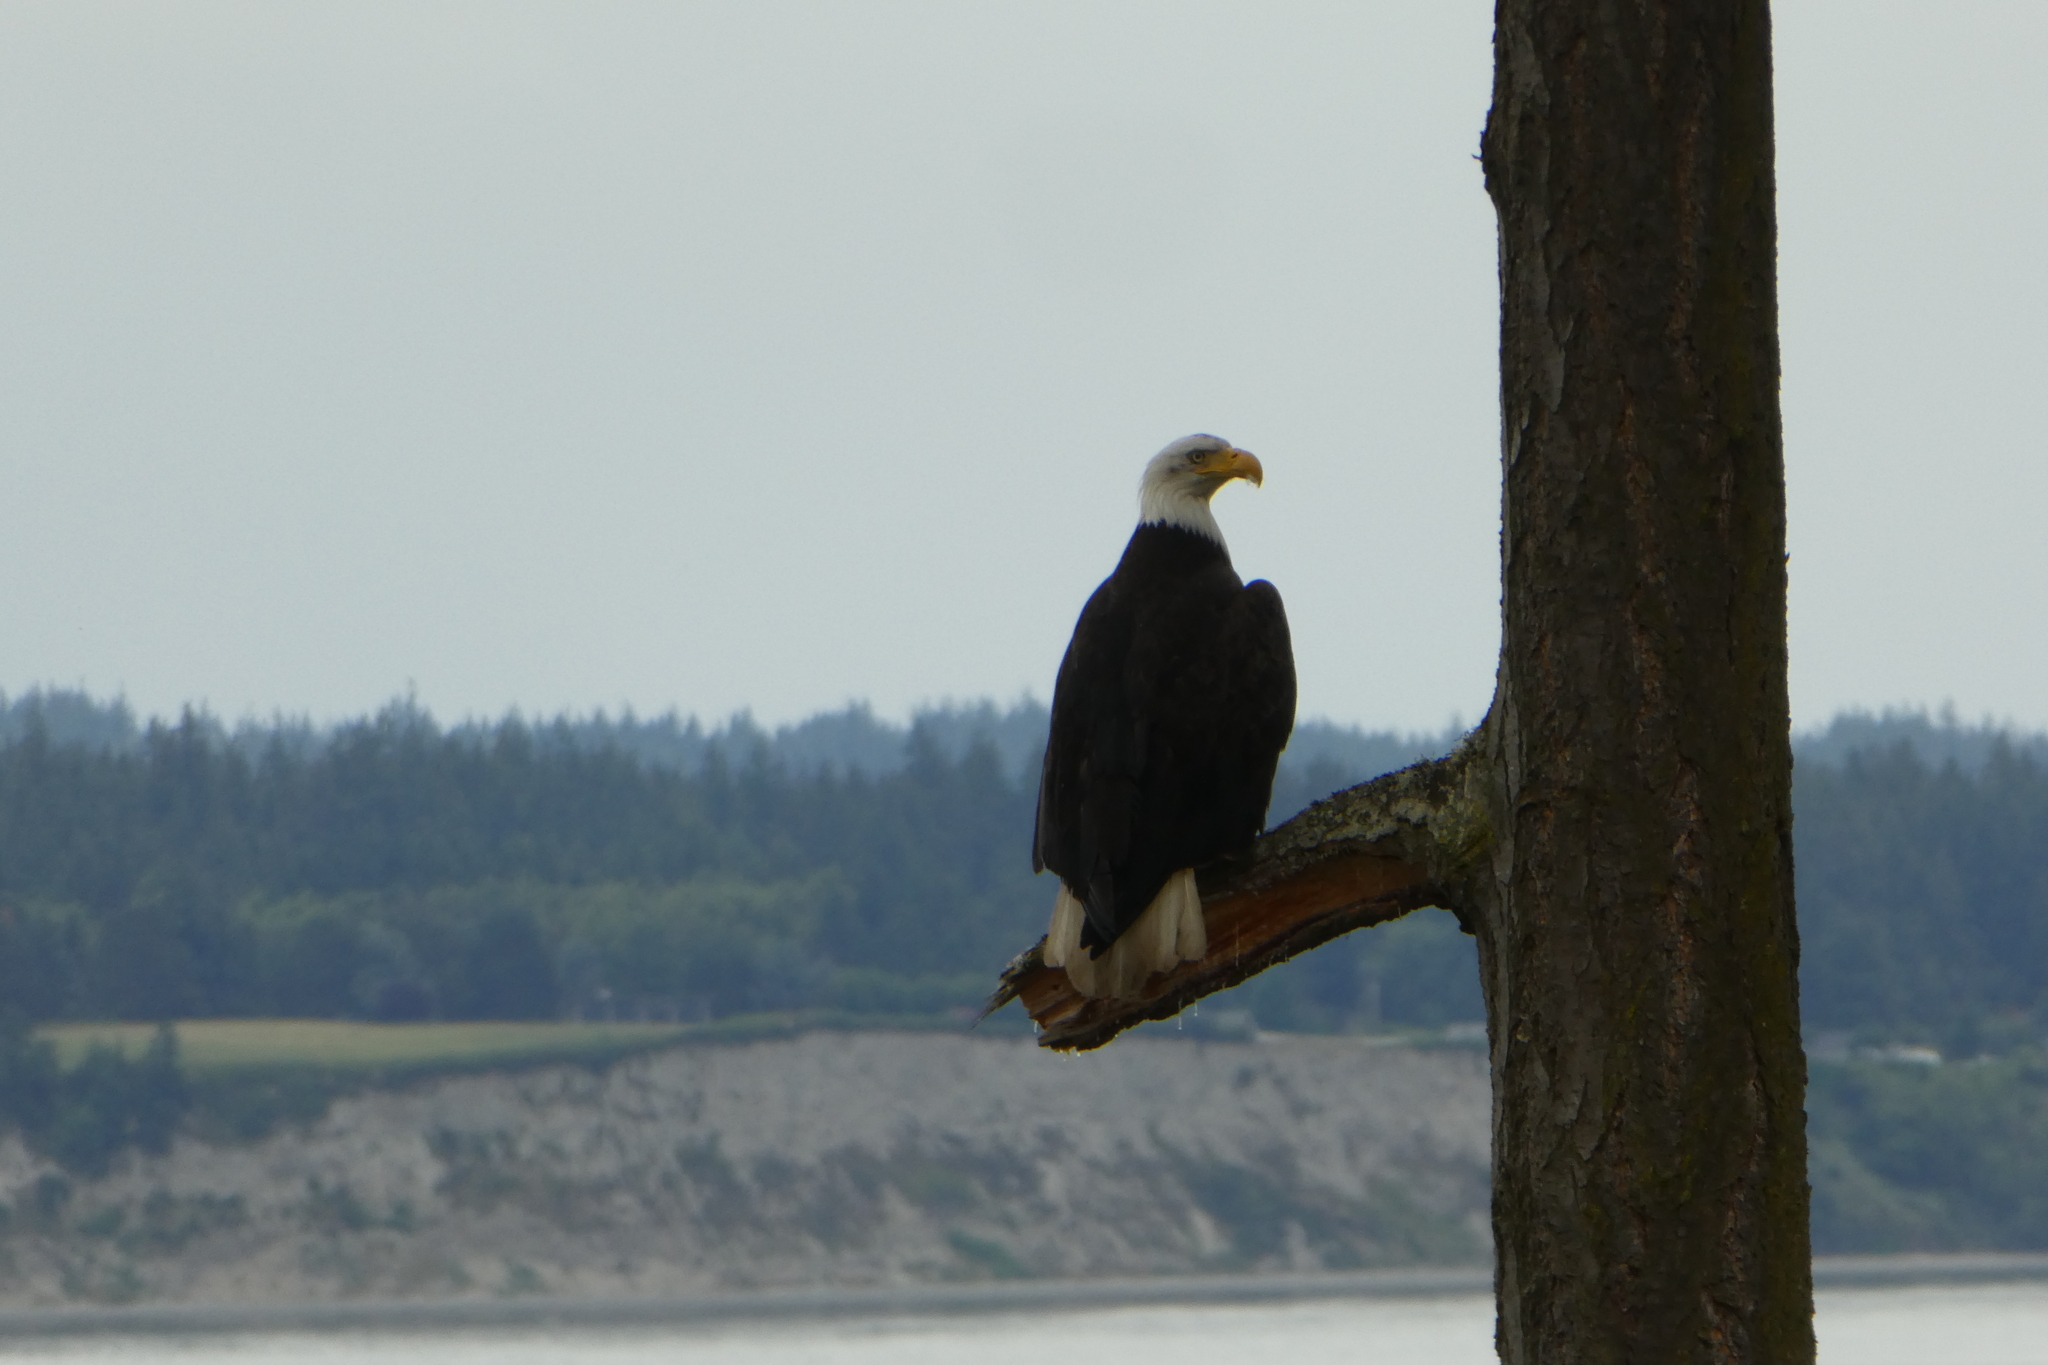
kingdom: Animalia
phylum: Chordata
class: Aves
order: Accipitriformes
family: Accipitridae
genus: Haliaeetus
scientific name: Haliaeetus leucocephalus
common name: Bald eagle
